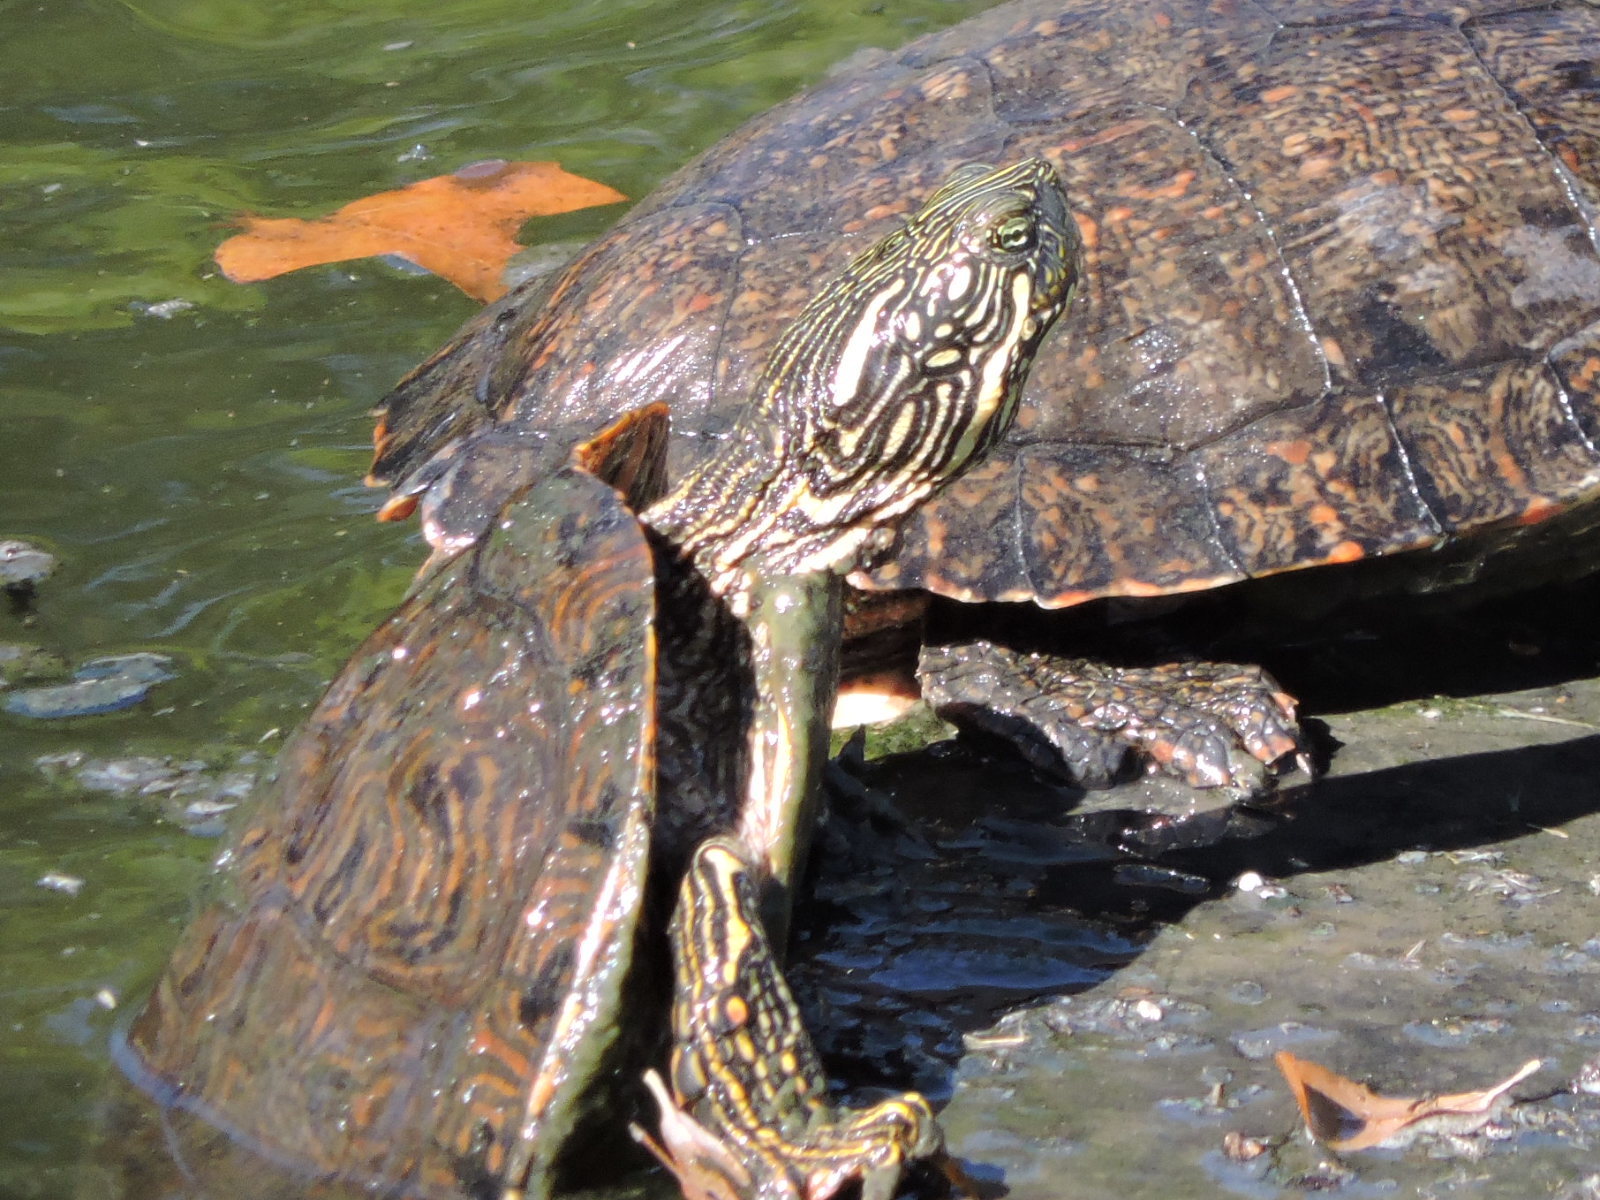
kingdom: Animalia
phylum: Chordata
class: Testudines
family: Emydidae
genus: Pseudemys
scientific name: Pseudemys texana
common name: Texas river cooter
